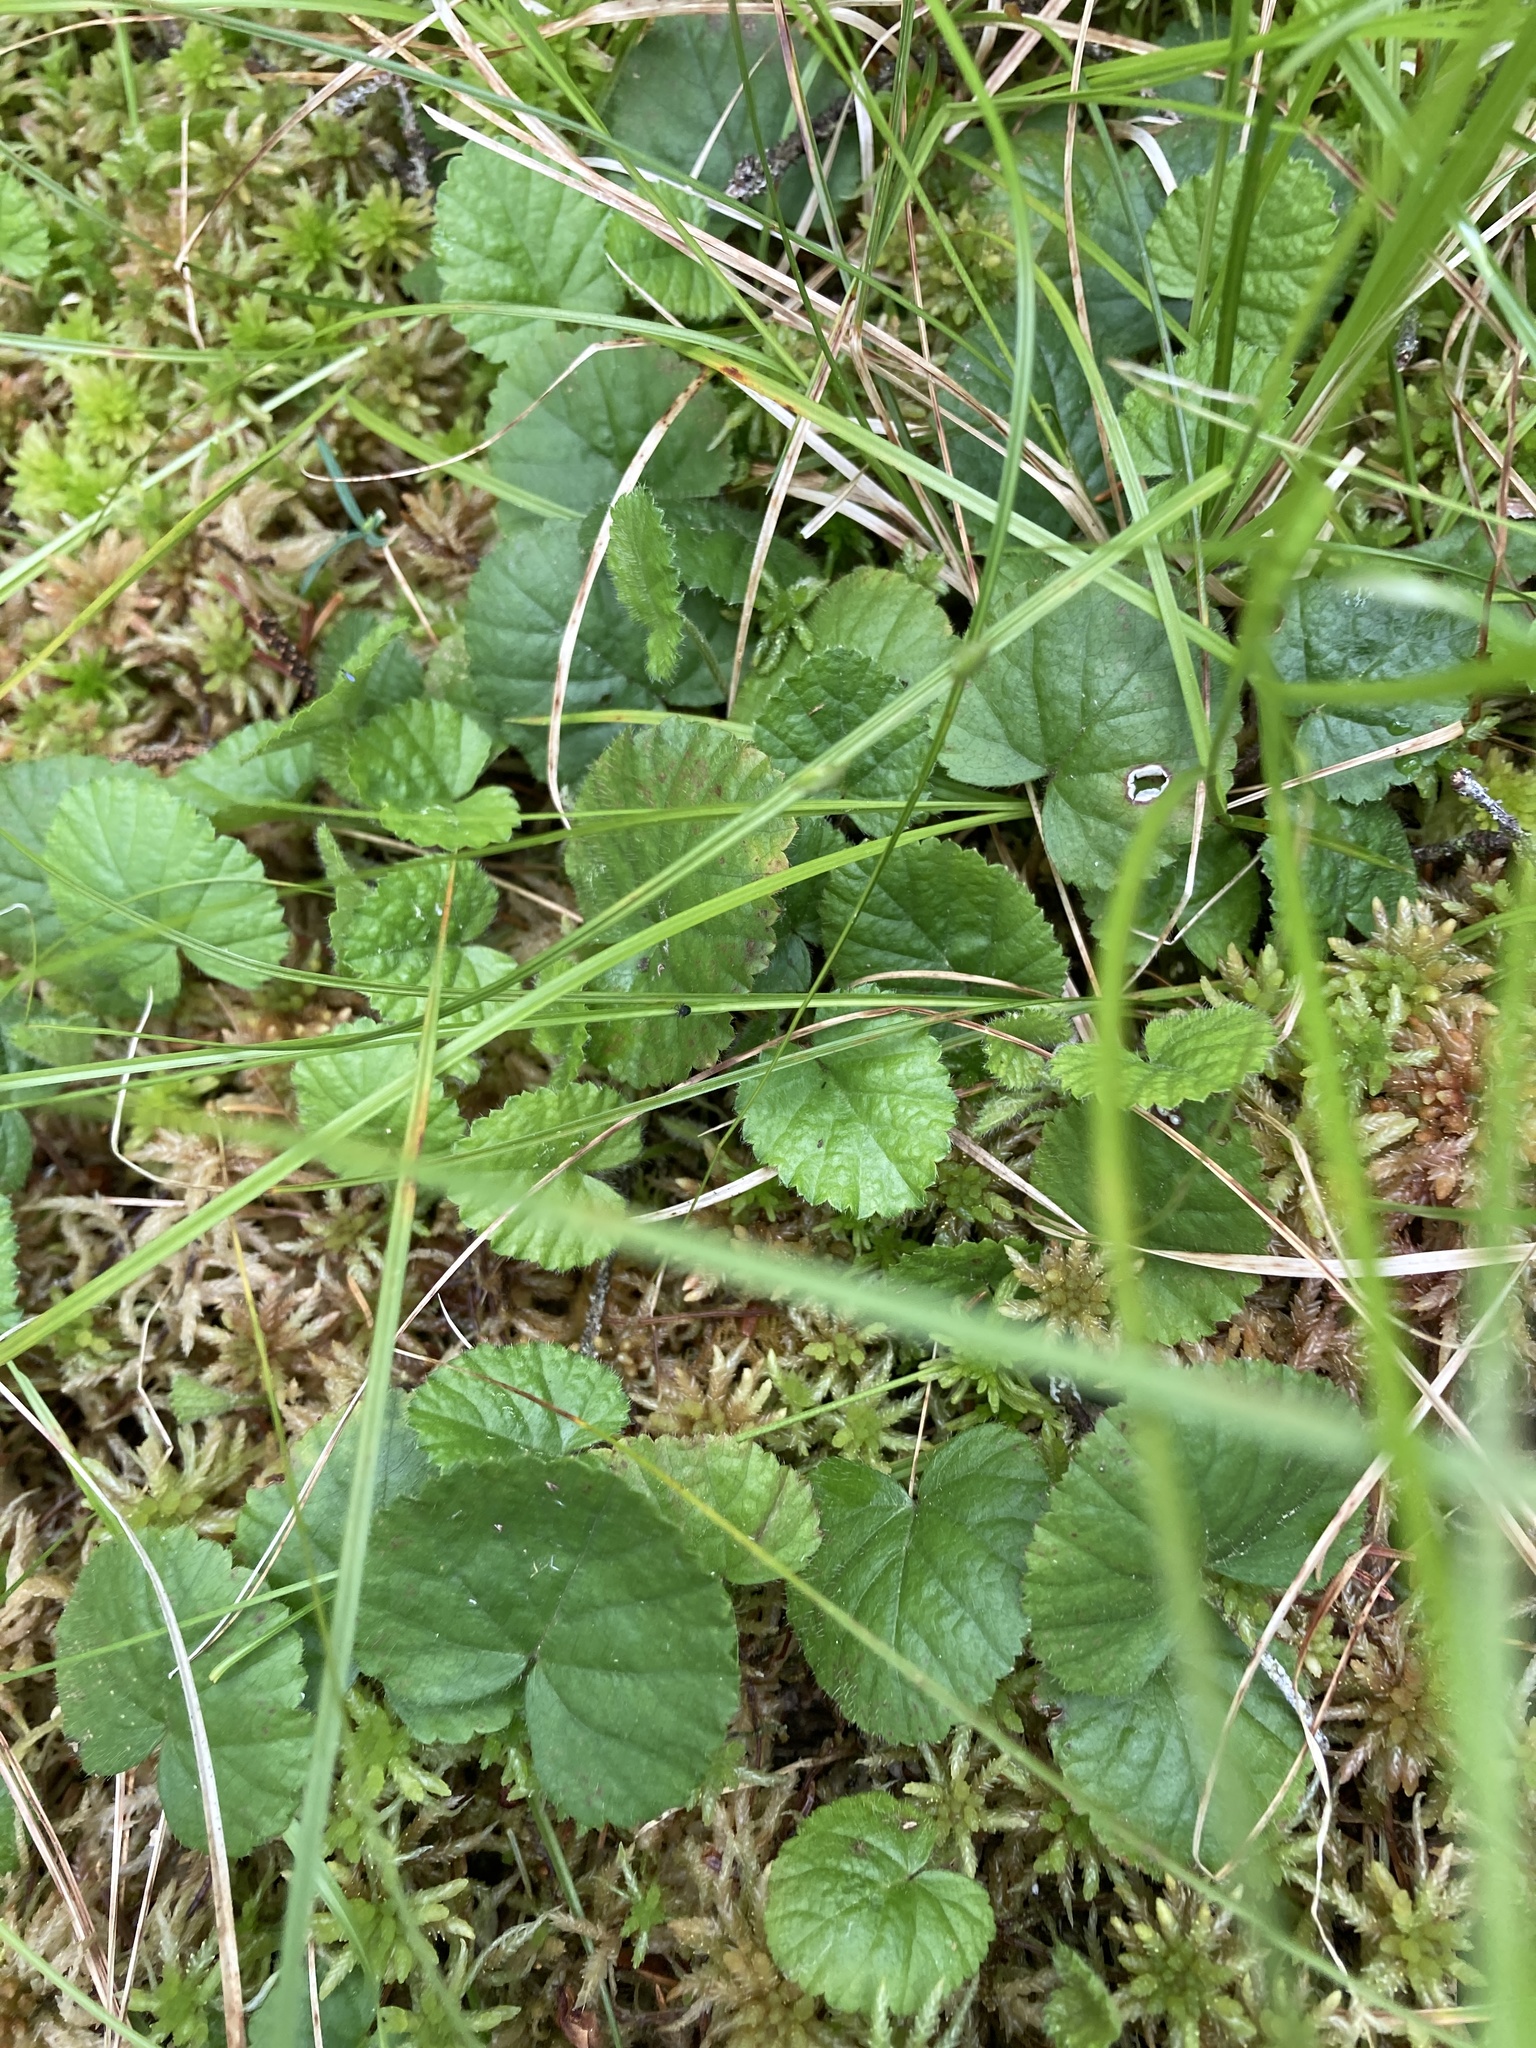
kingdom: Plantae
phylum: Tracheophyta
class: Magnoliopsida
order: Rosales
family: Rosaceae
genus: Dalibarda
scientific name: Dalibarda repens
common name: Dewdrop
